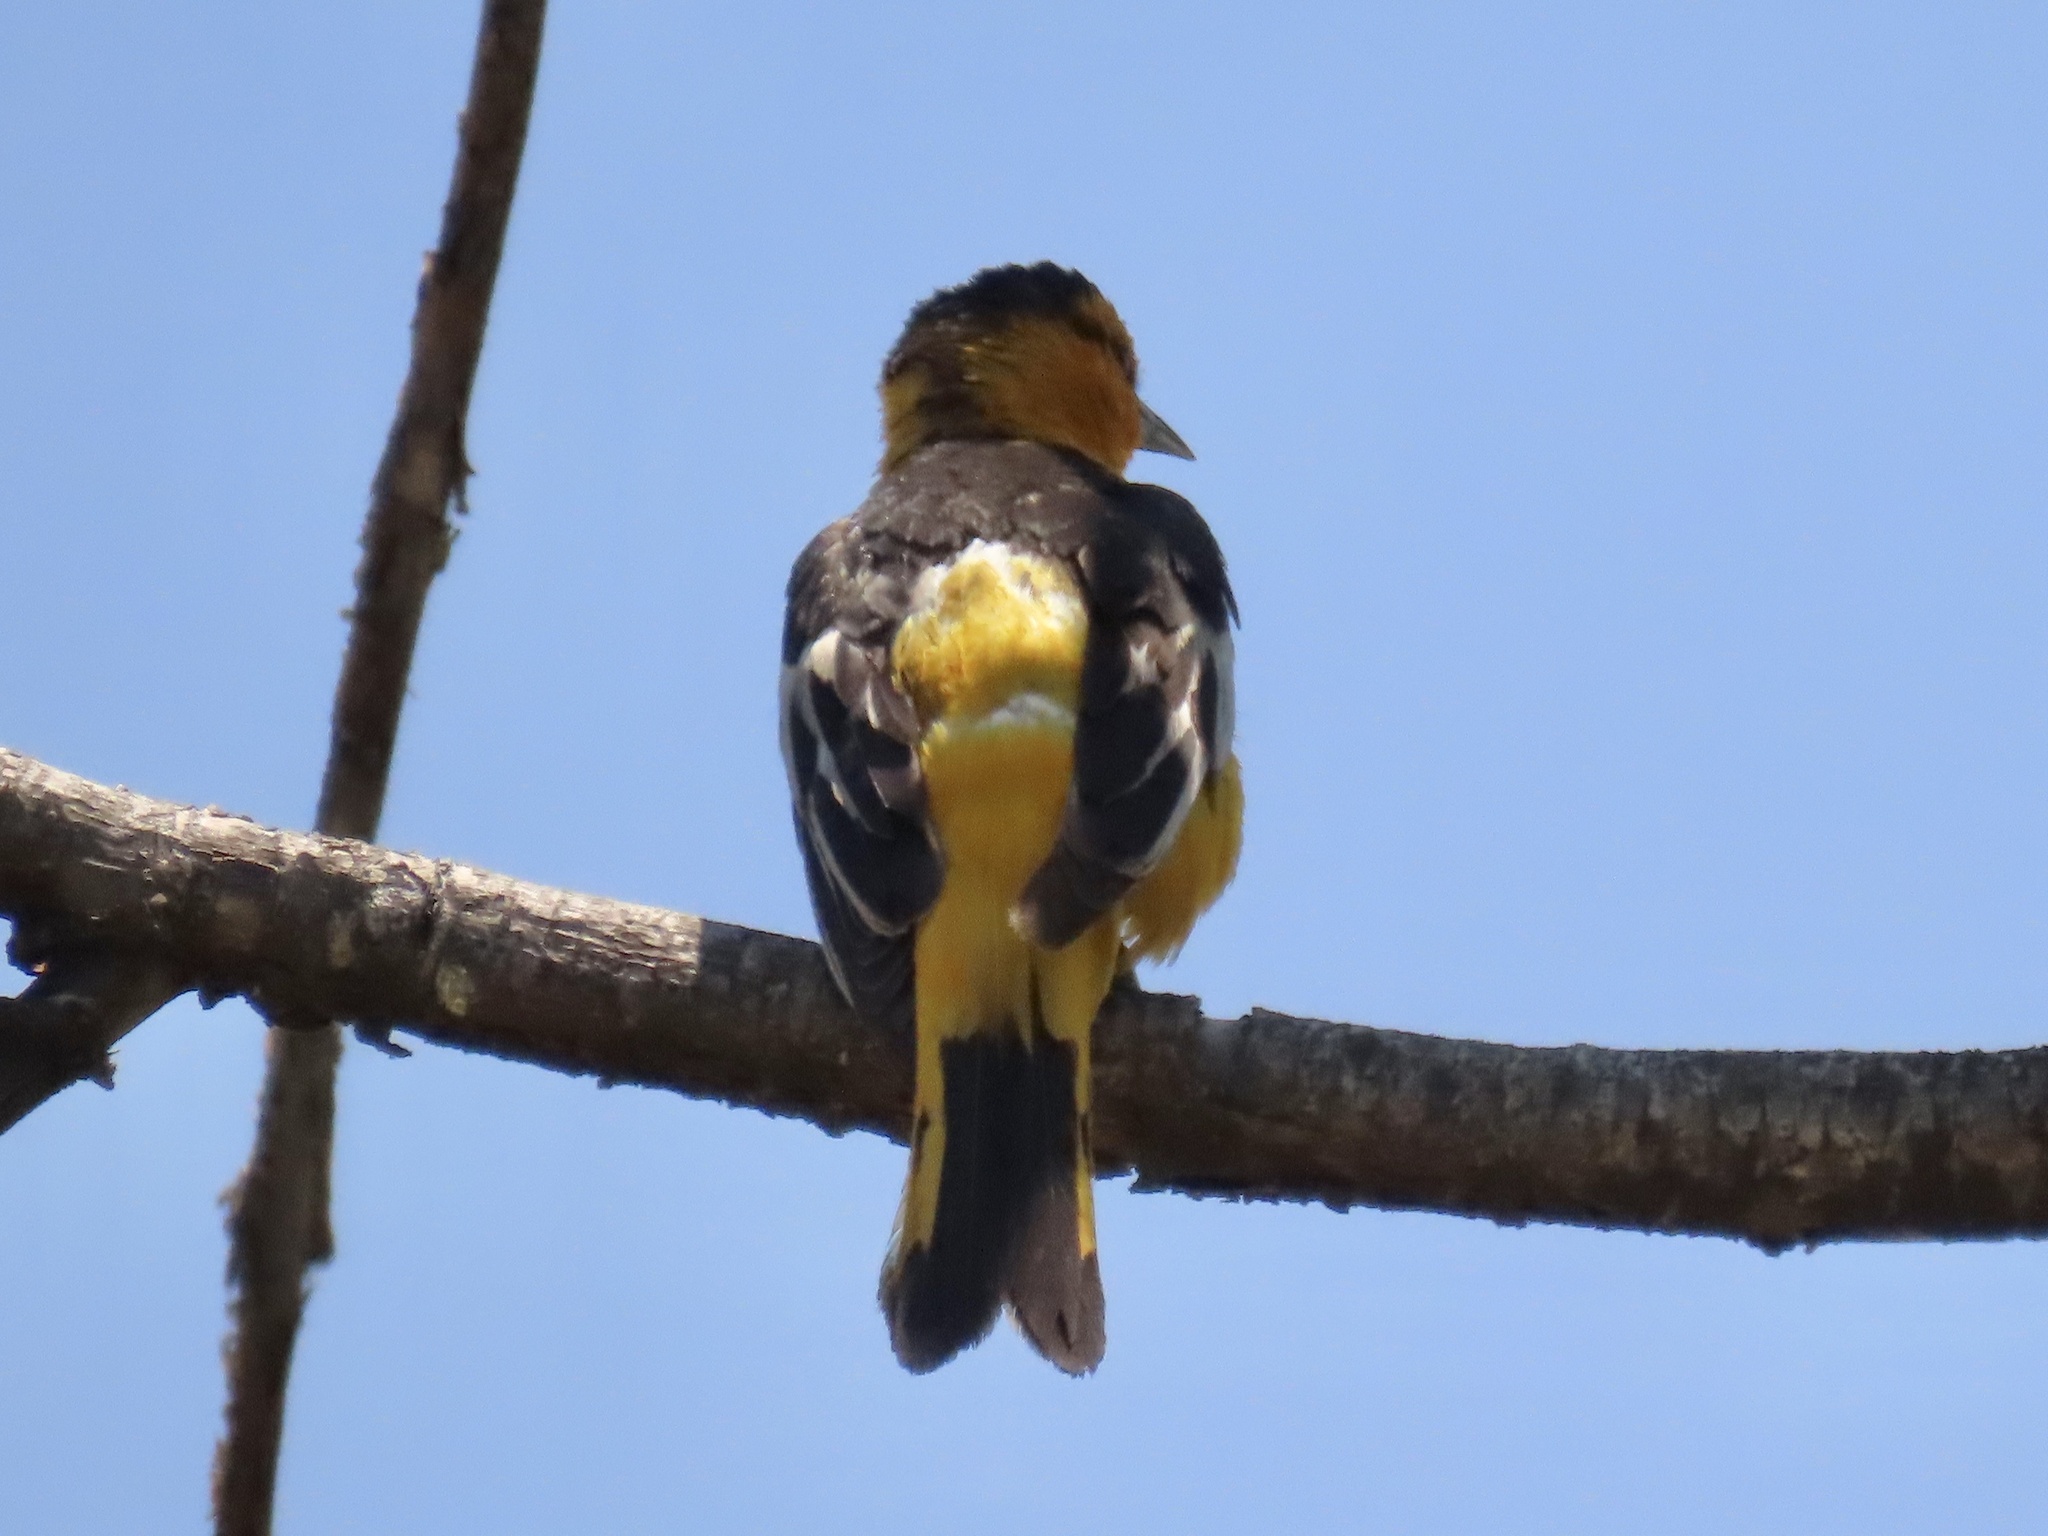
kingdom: Animalia
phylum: Chordata
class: Aves
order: Passeriformes
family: Icteridae
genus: Icterus
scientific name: Icterus bullockii
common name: Bullock's oriole
